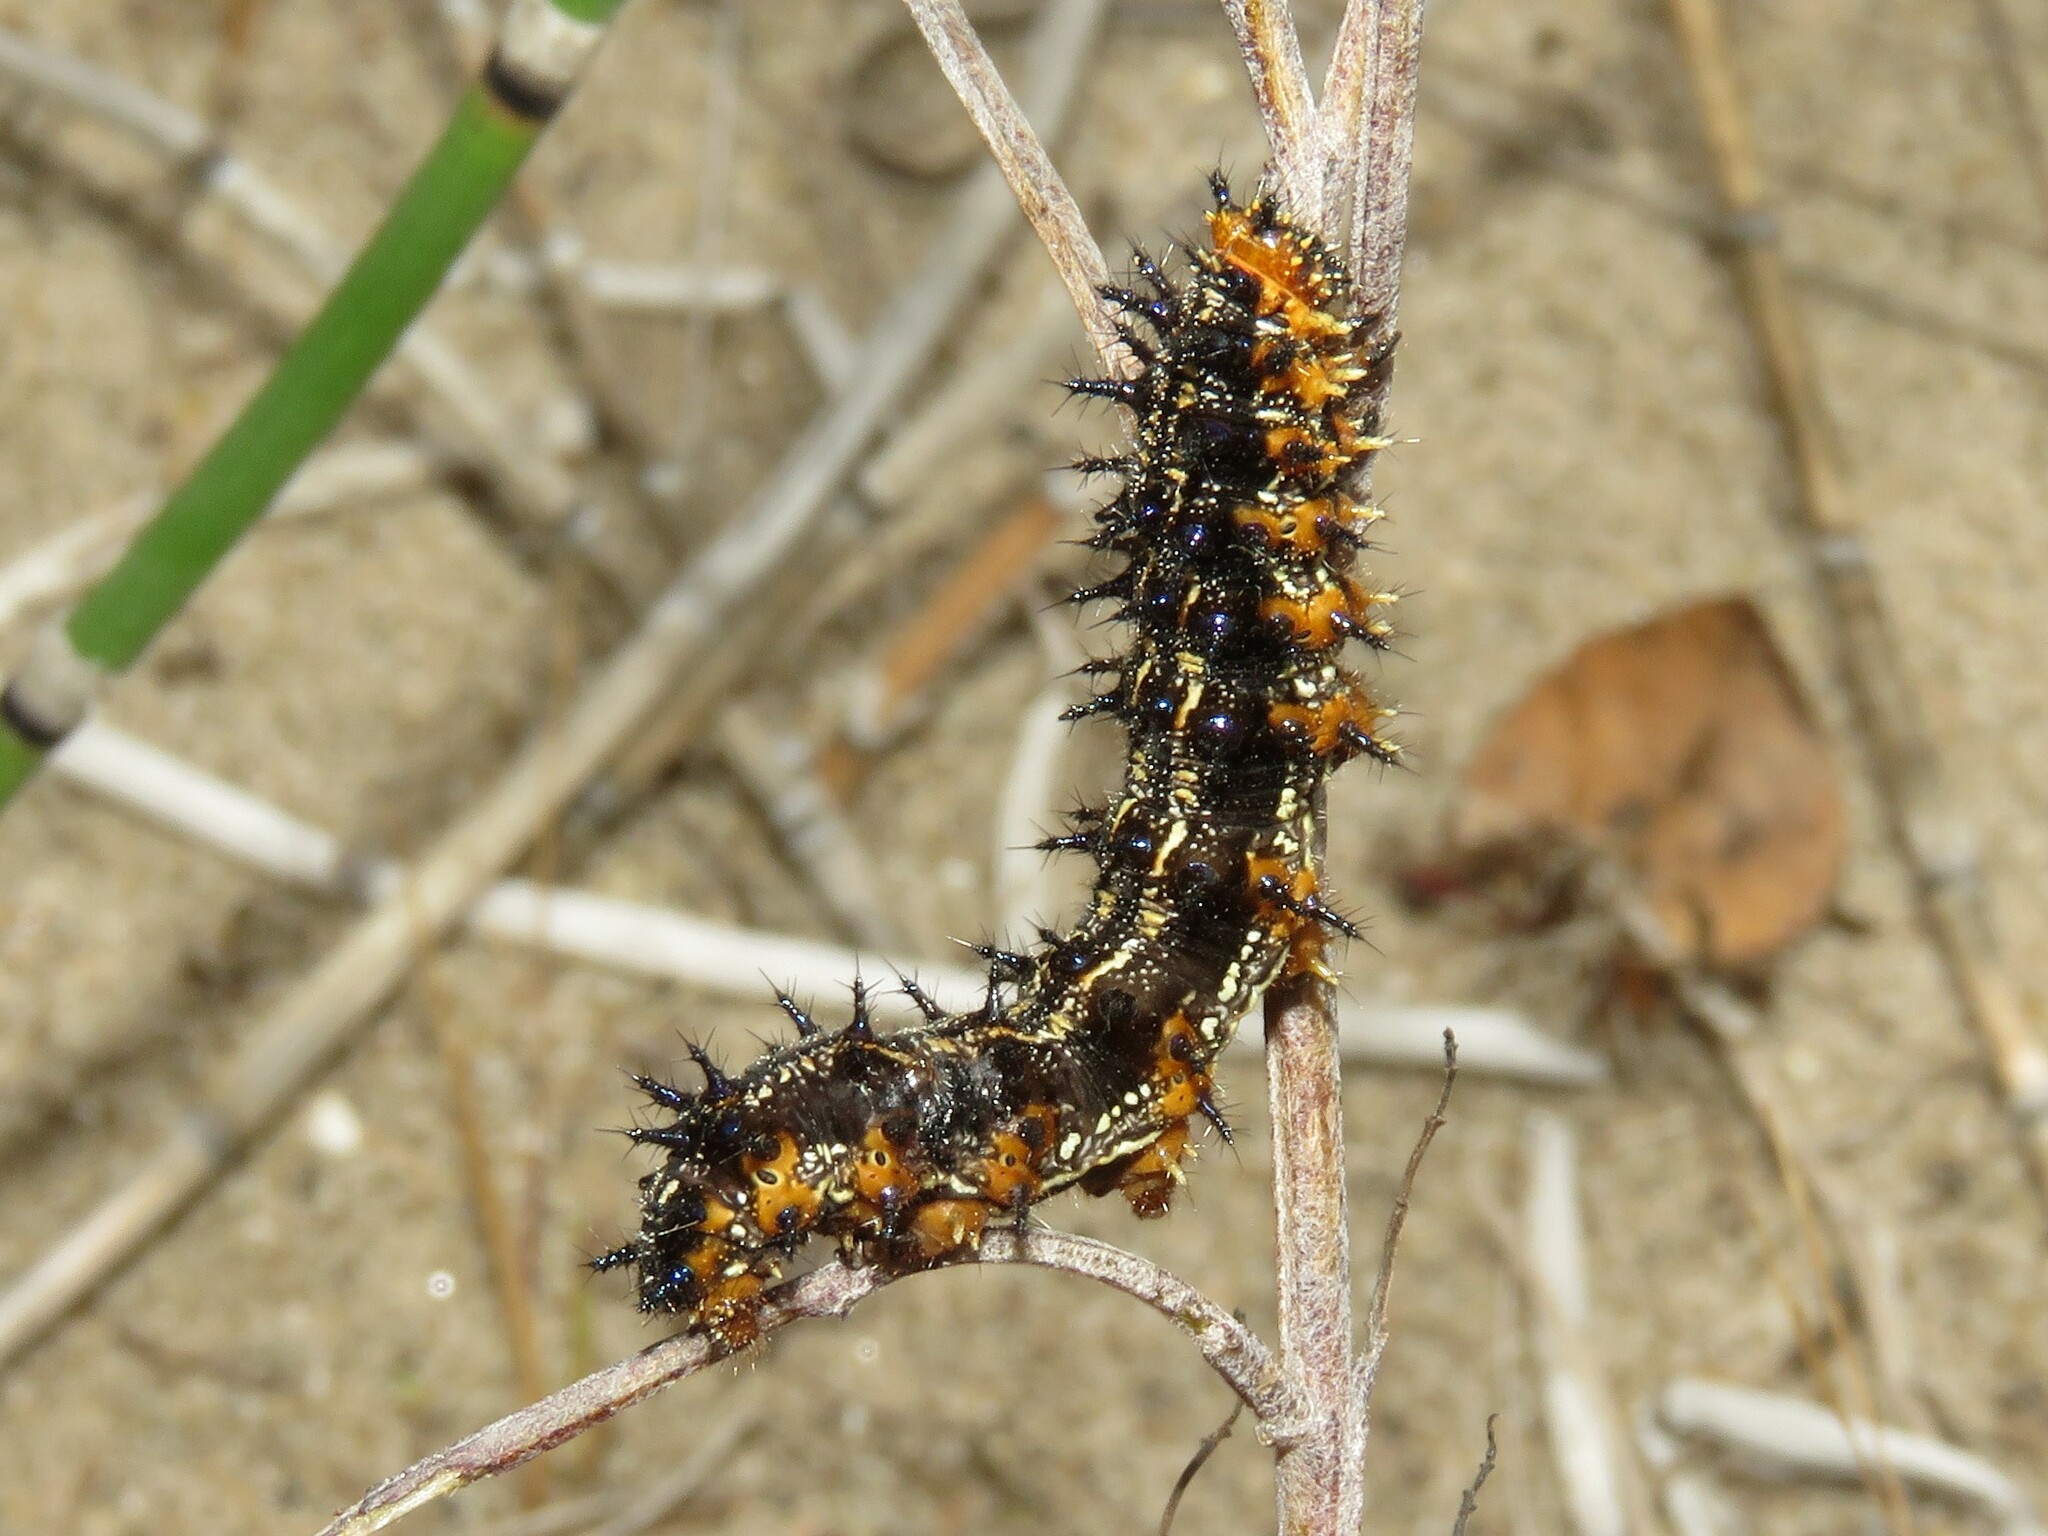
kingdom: Animalia
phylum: Arthropoda
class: Insecta
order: Lepidoptera
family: Nymphalidae
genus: Junonia
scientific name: Junonia coenia
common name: Common buckeye
